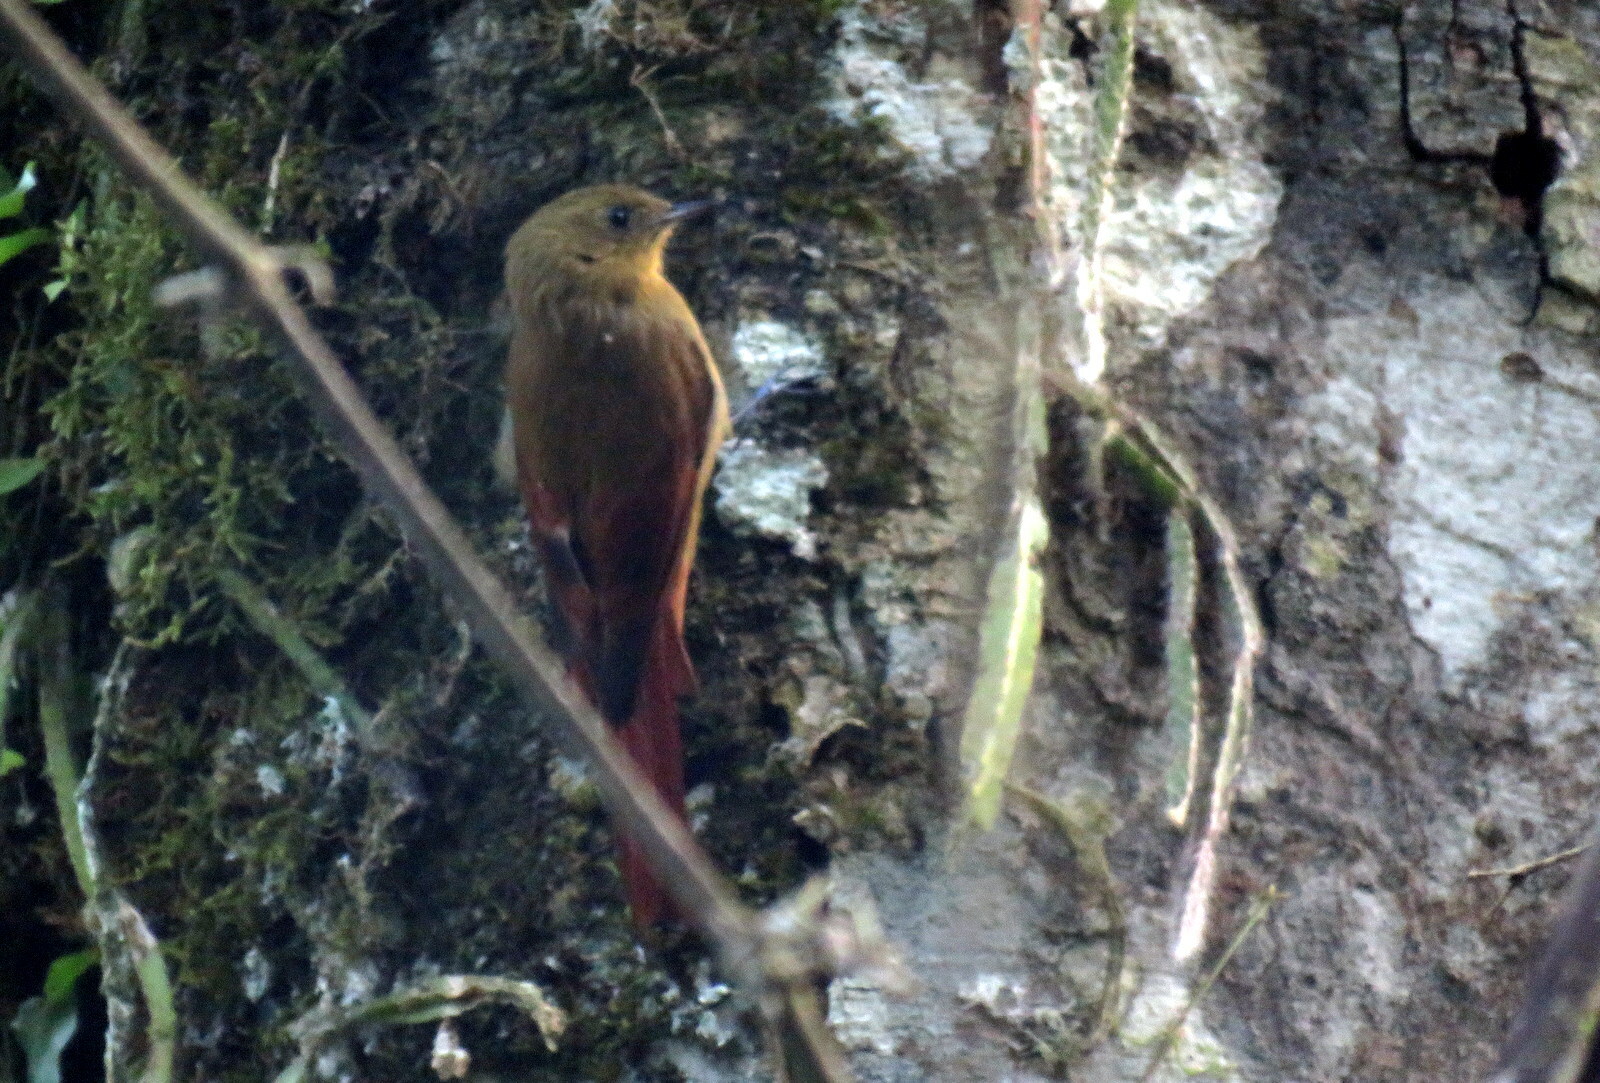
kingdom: Animalia
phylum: Chordata
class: Aves
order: Passeriformes
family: Furnariidae
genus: Sittasomus
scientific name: Sittasomus griseicapillus
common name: Olivaceous woodcreeper
